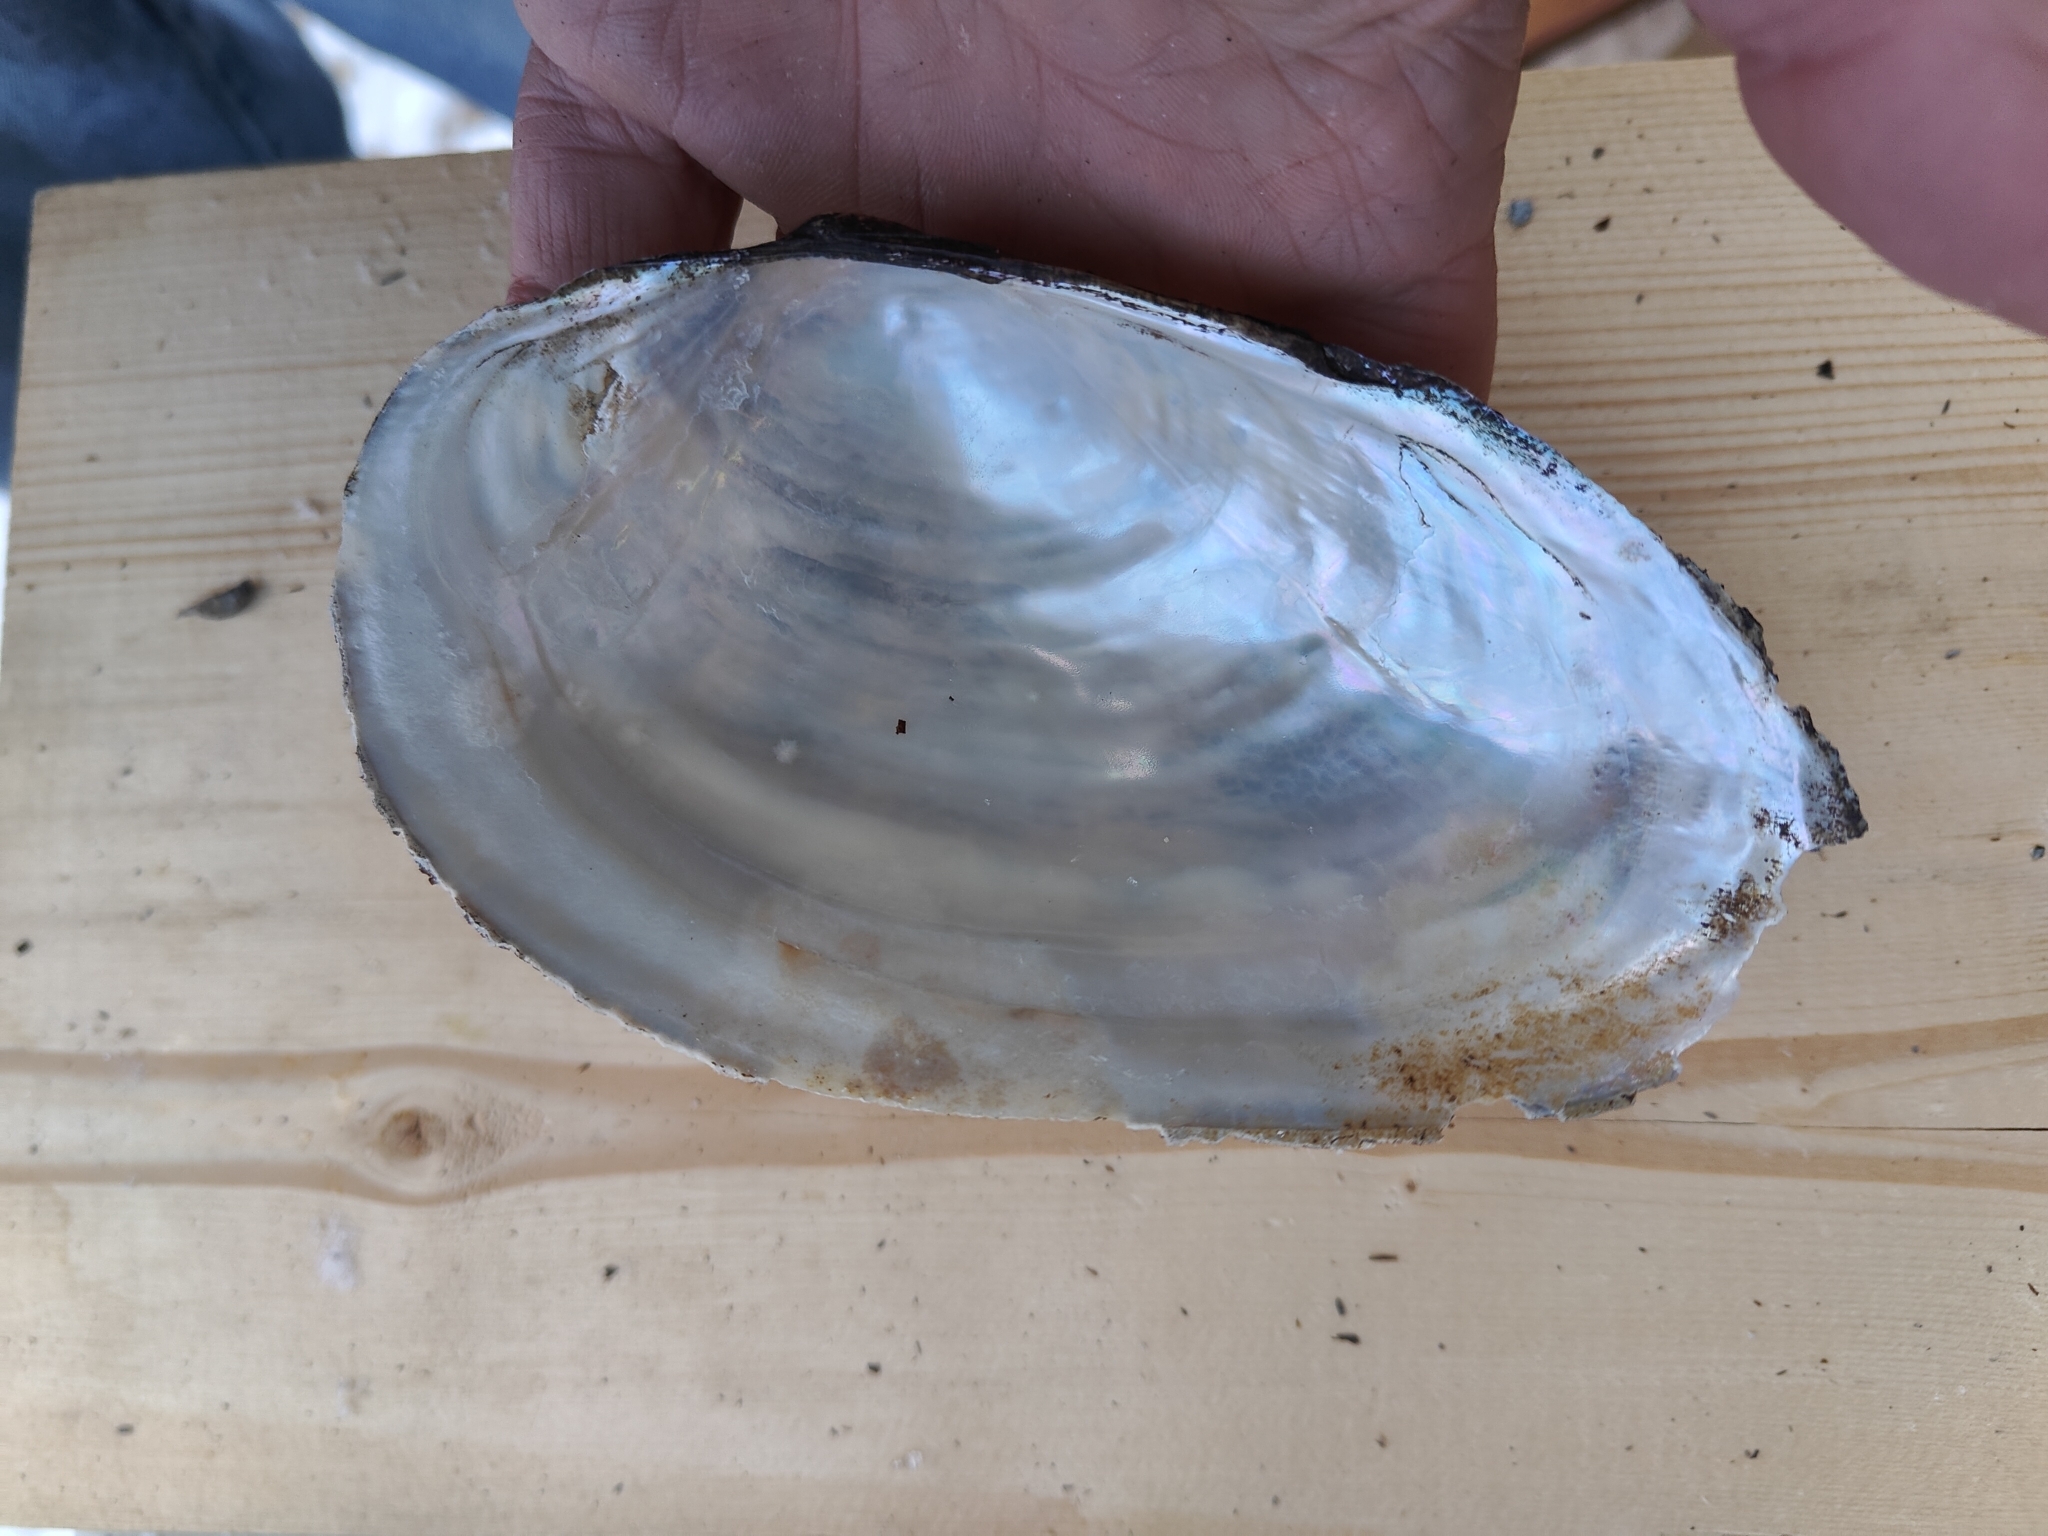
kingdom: Animalia
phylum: Mollusca
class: Bivalvia
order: Unionida
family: Unionidae
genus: Pyganodon
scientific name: Pyganodon grandis
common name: Giant floater
